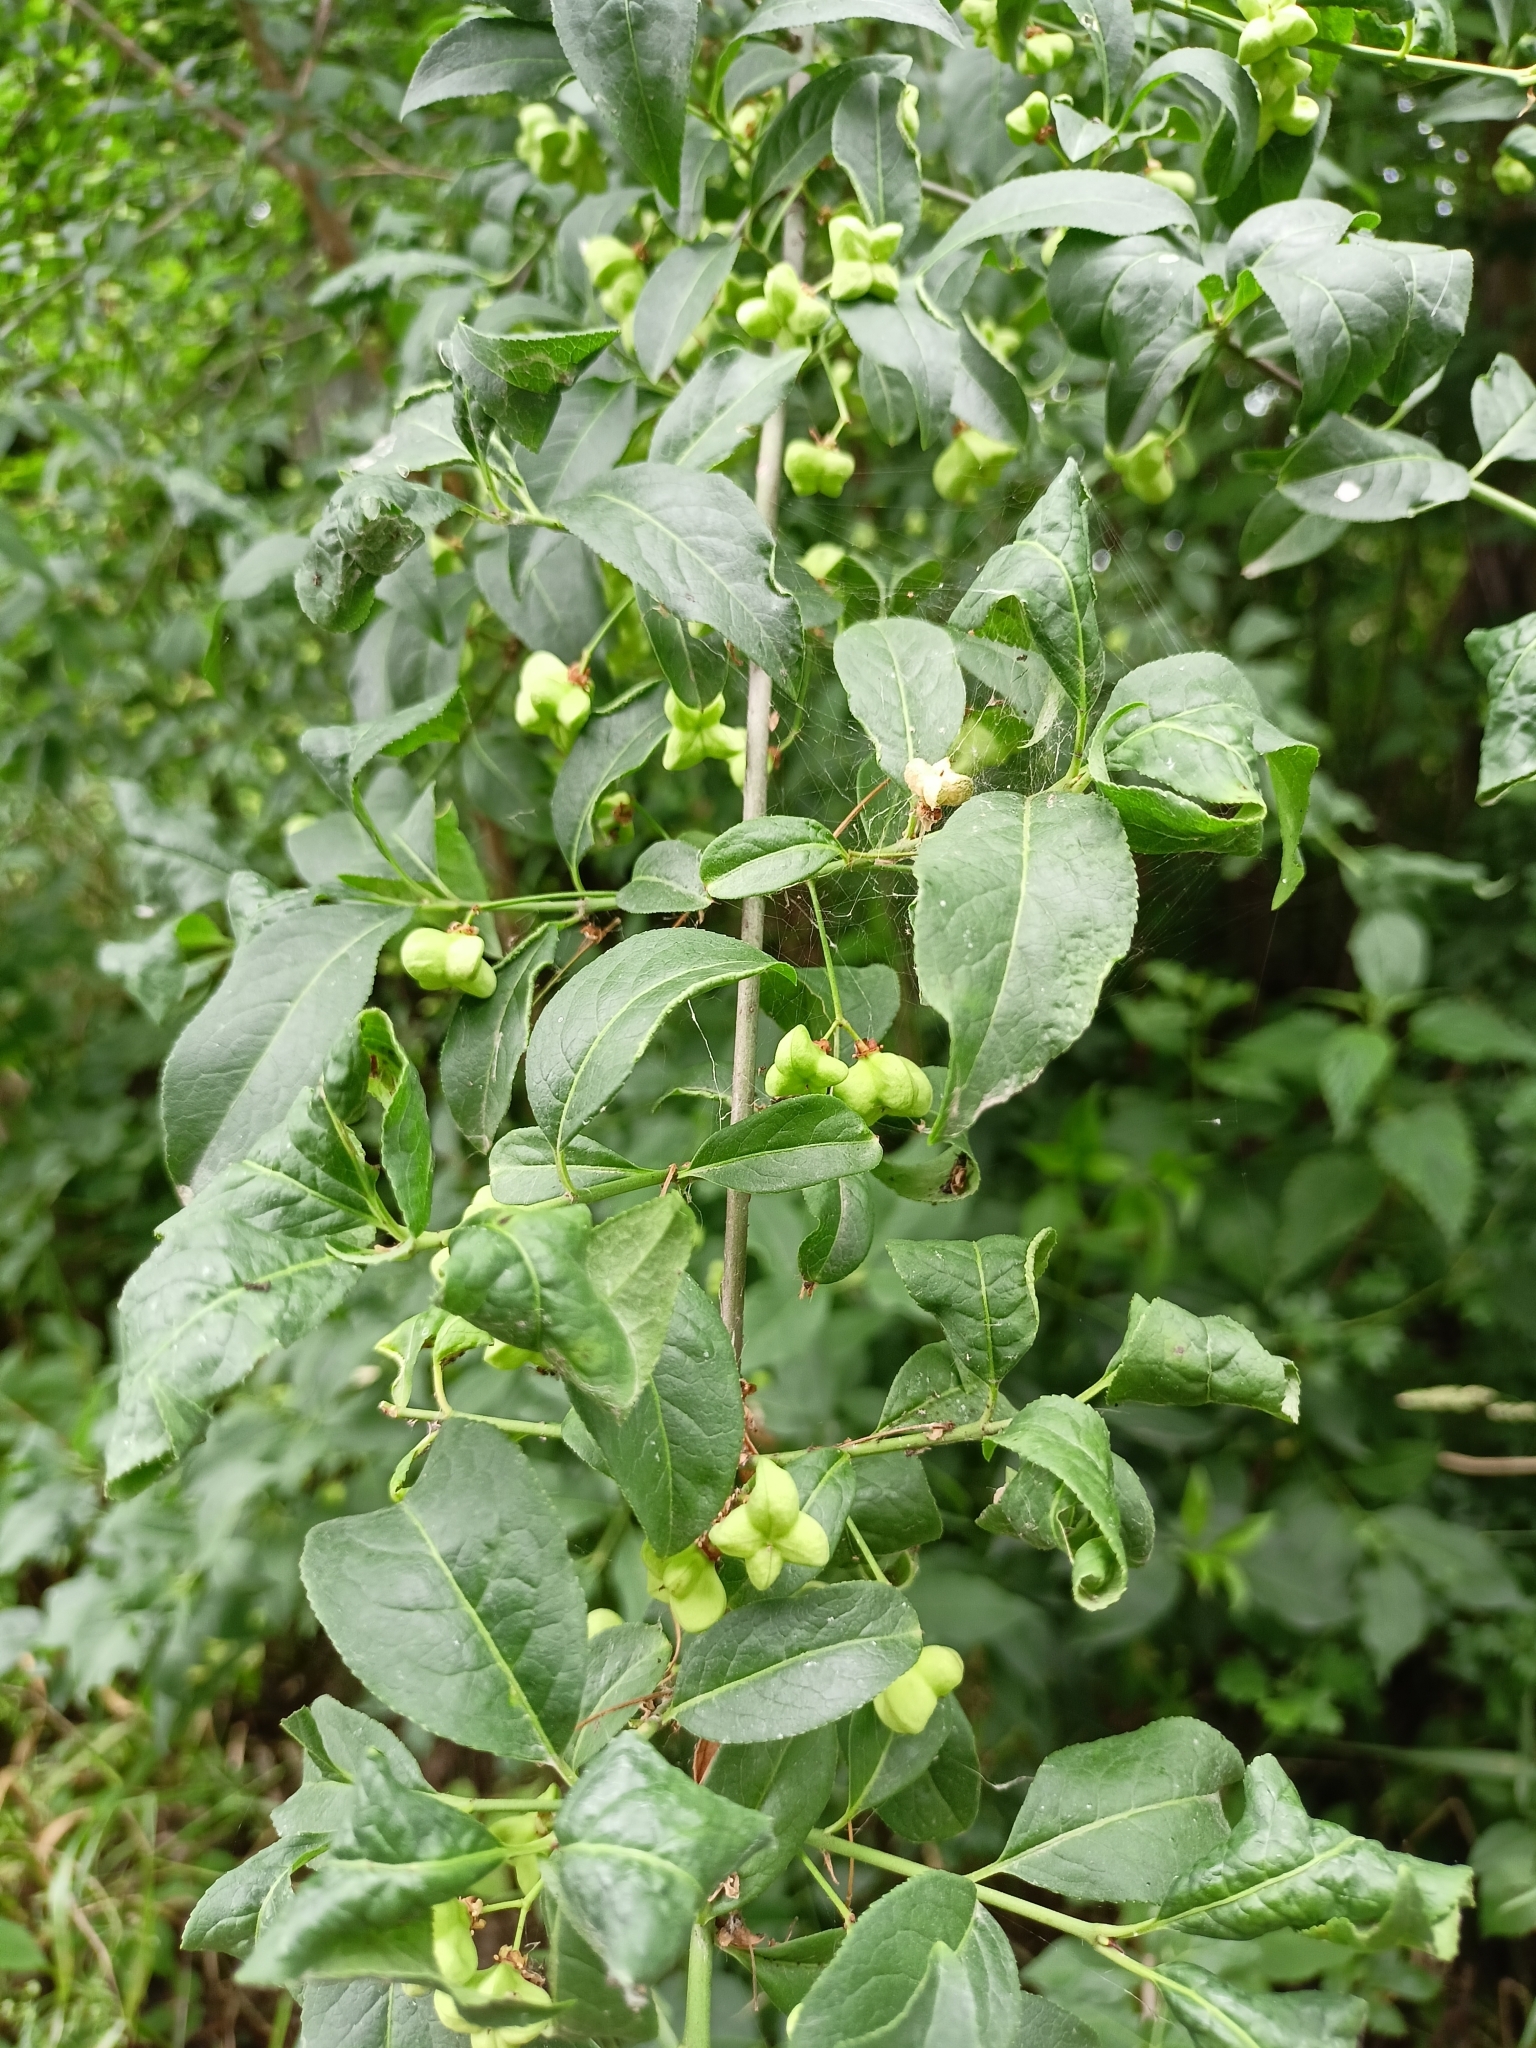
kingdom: Plantae
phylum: Tracheophyta
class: Magnoliopsida
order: Celastrales
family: Celastraceae
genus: Euonymus
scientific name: Euonymus europaeus
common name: Spindle
